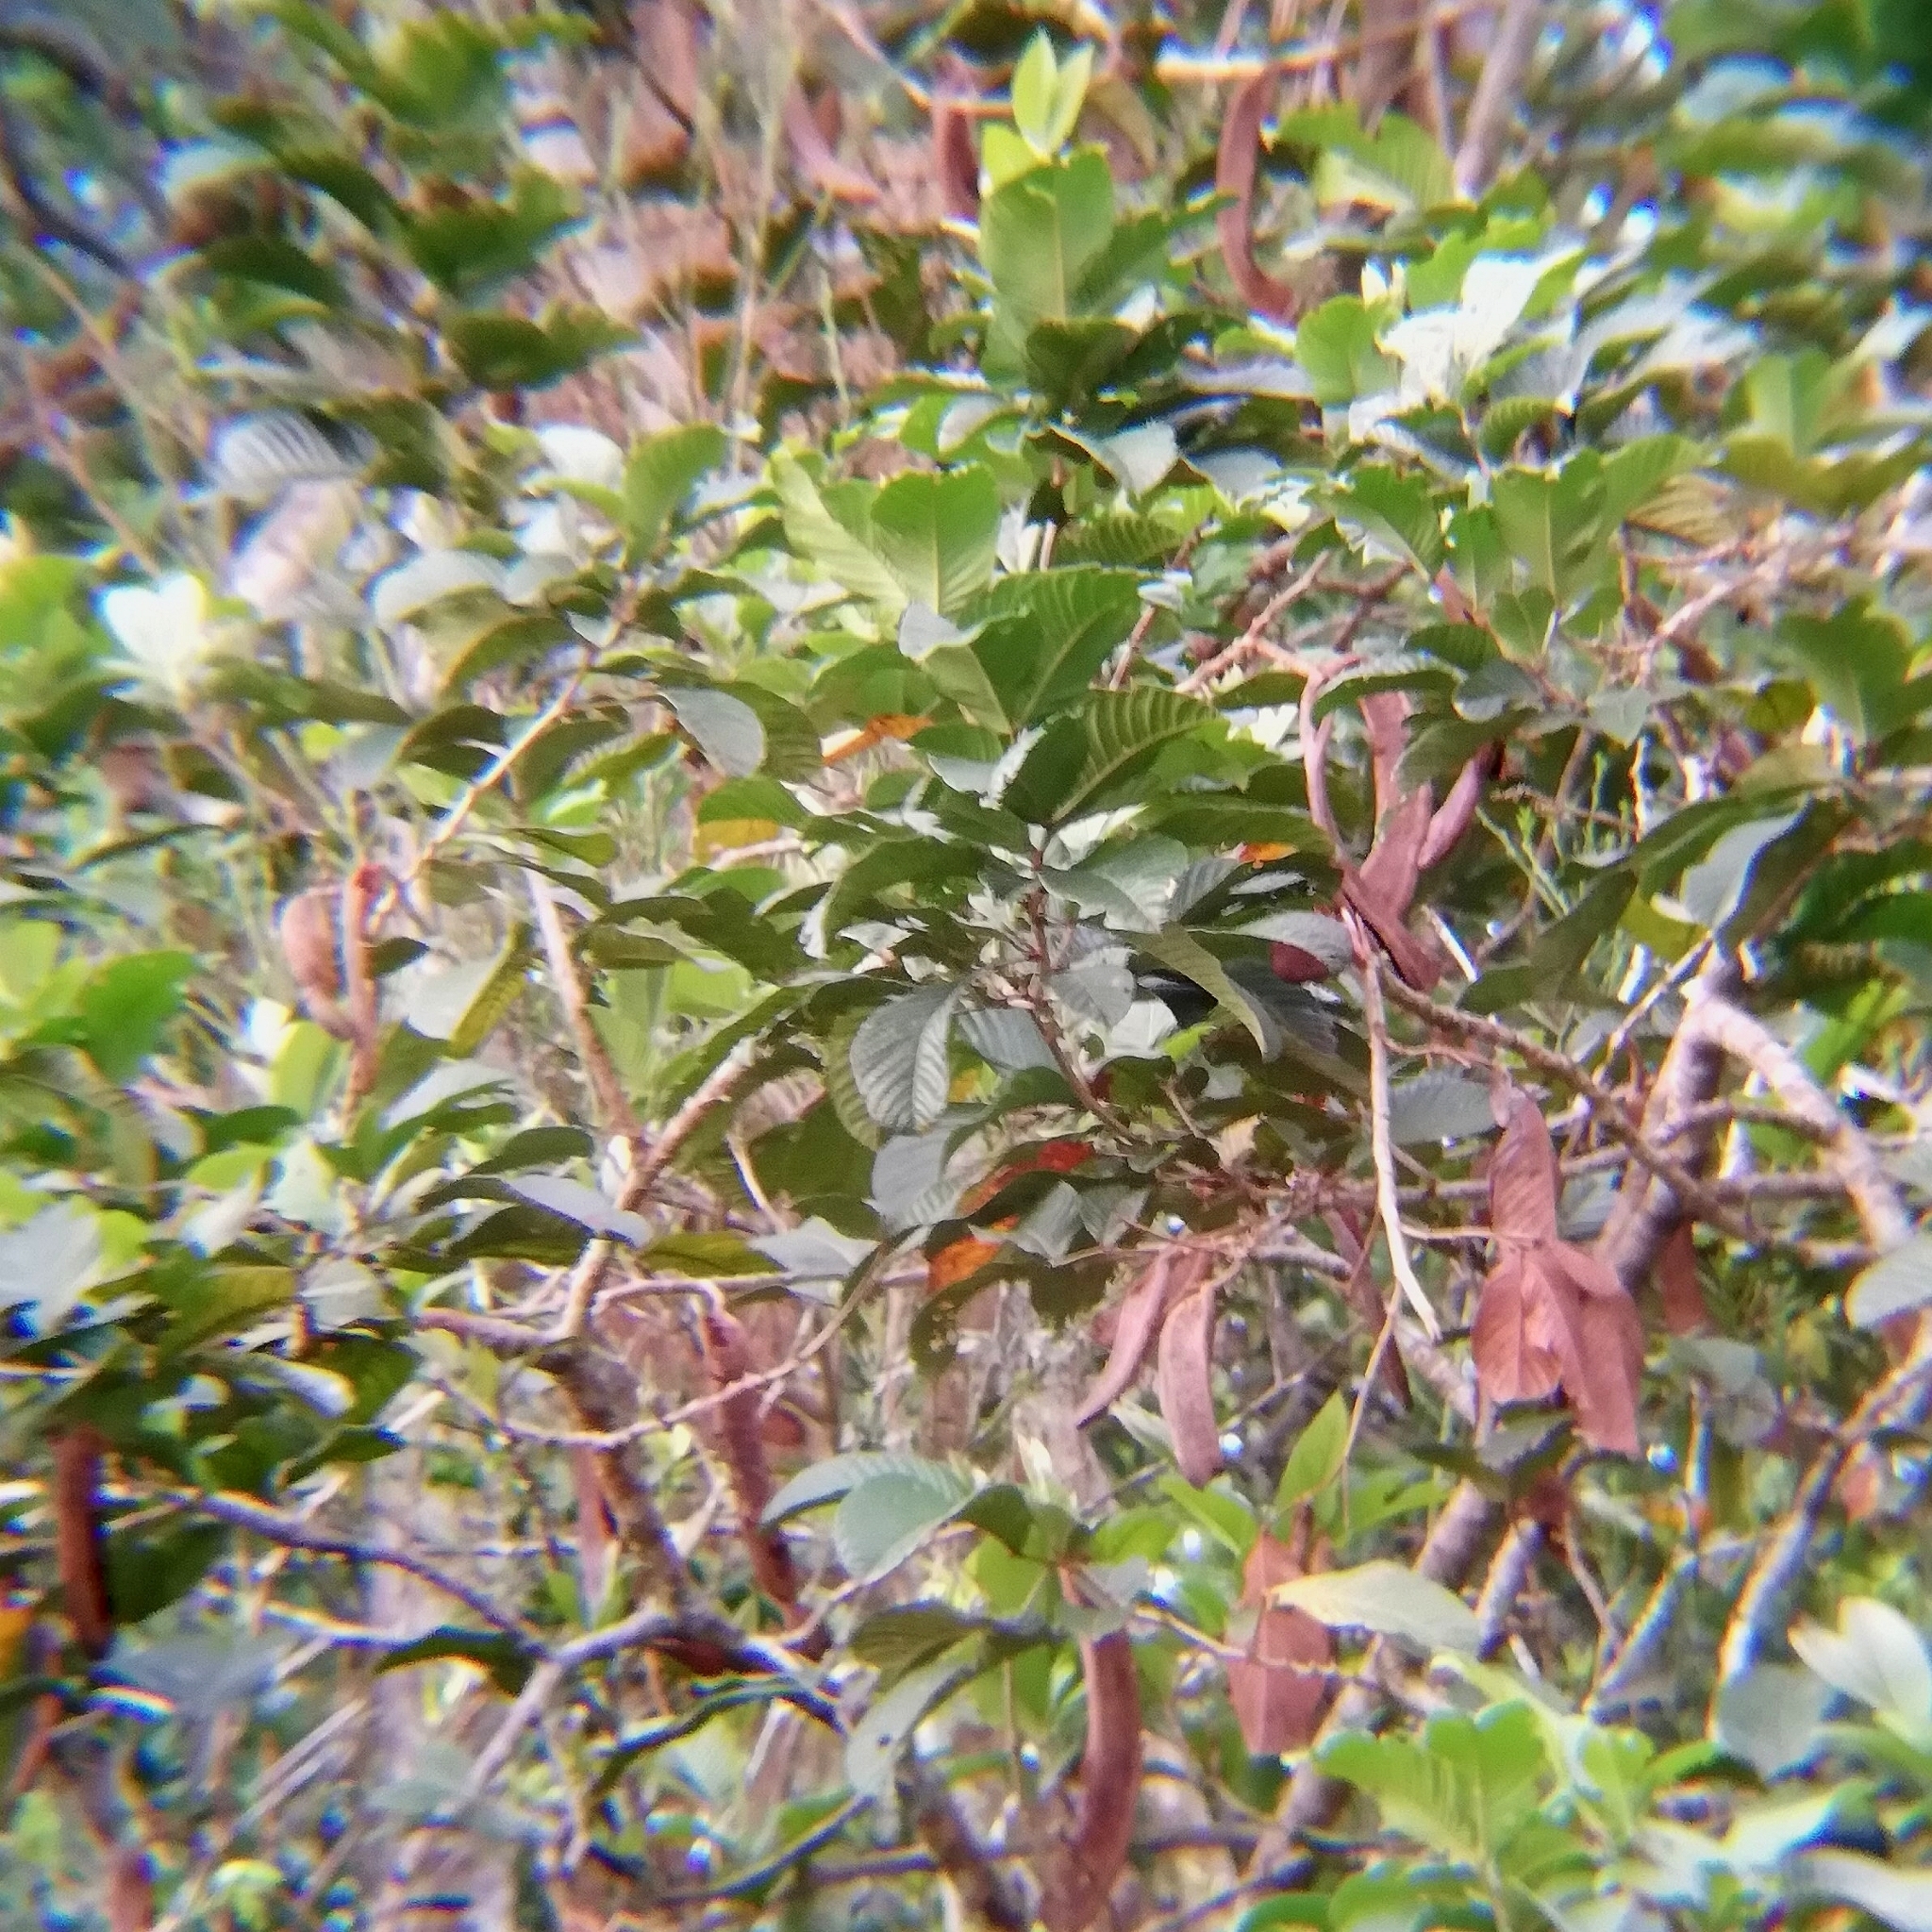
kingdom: Plantae
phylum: Tracheophyta
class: Magnoliopsida
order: Fabales
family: Fabaceae
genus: Inga
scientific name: Inga spectabilis
